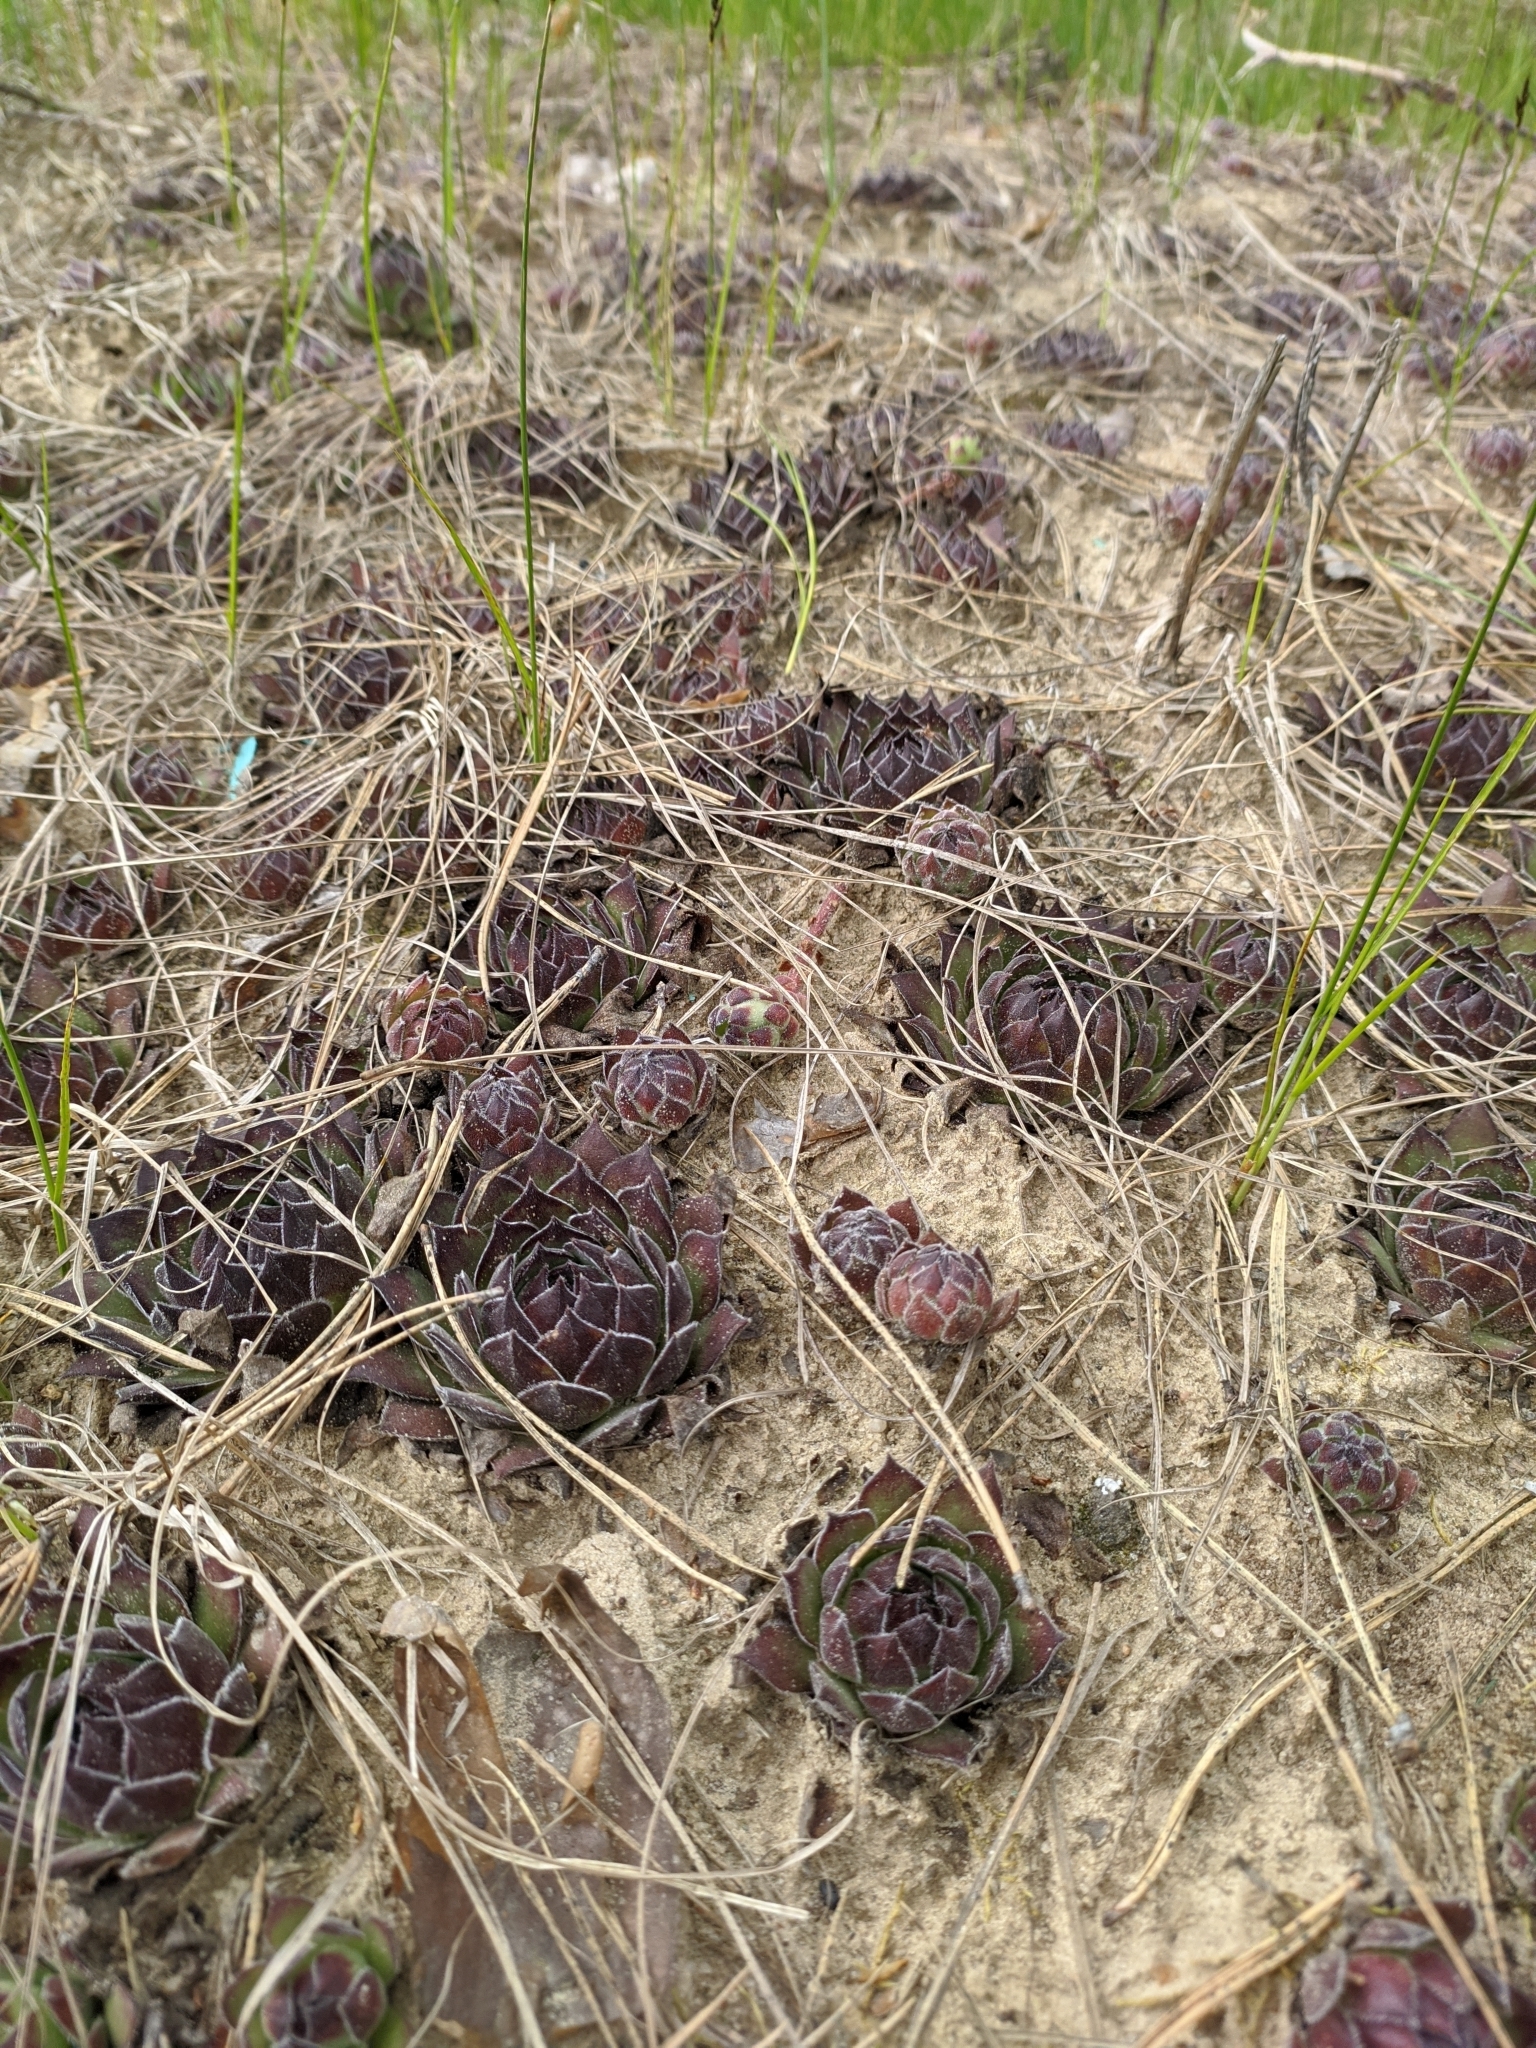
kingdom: Plantae
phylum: Tracheophyta
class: Magnoliopsida
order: Saxifragales
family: Crassulaceae
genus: Sempervivum
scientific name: Sempervivum ruthenicum
